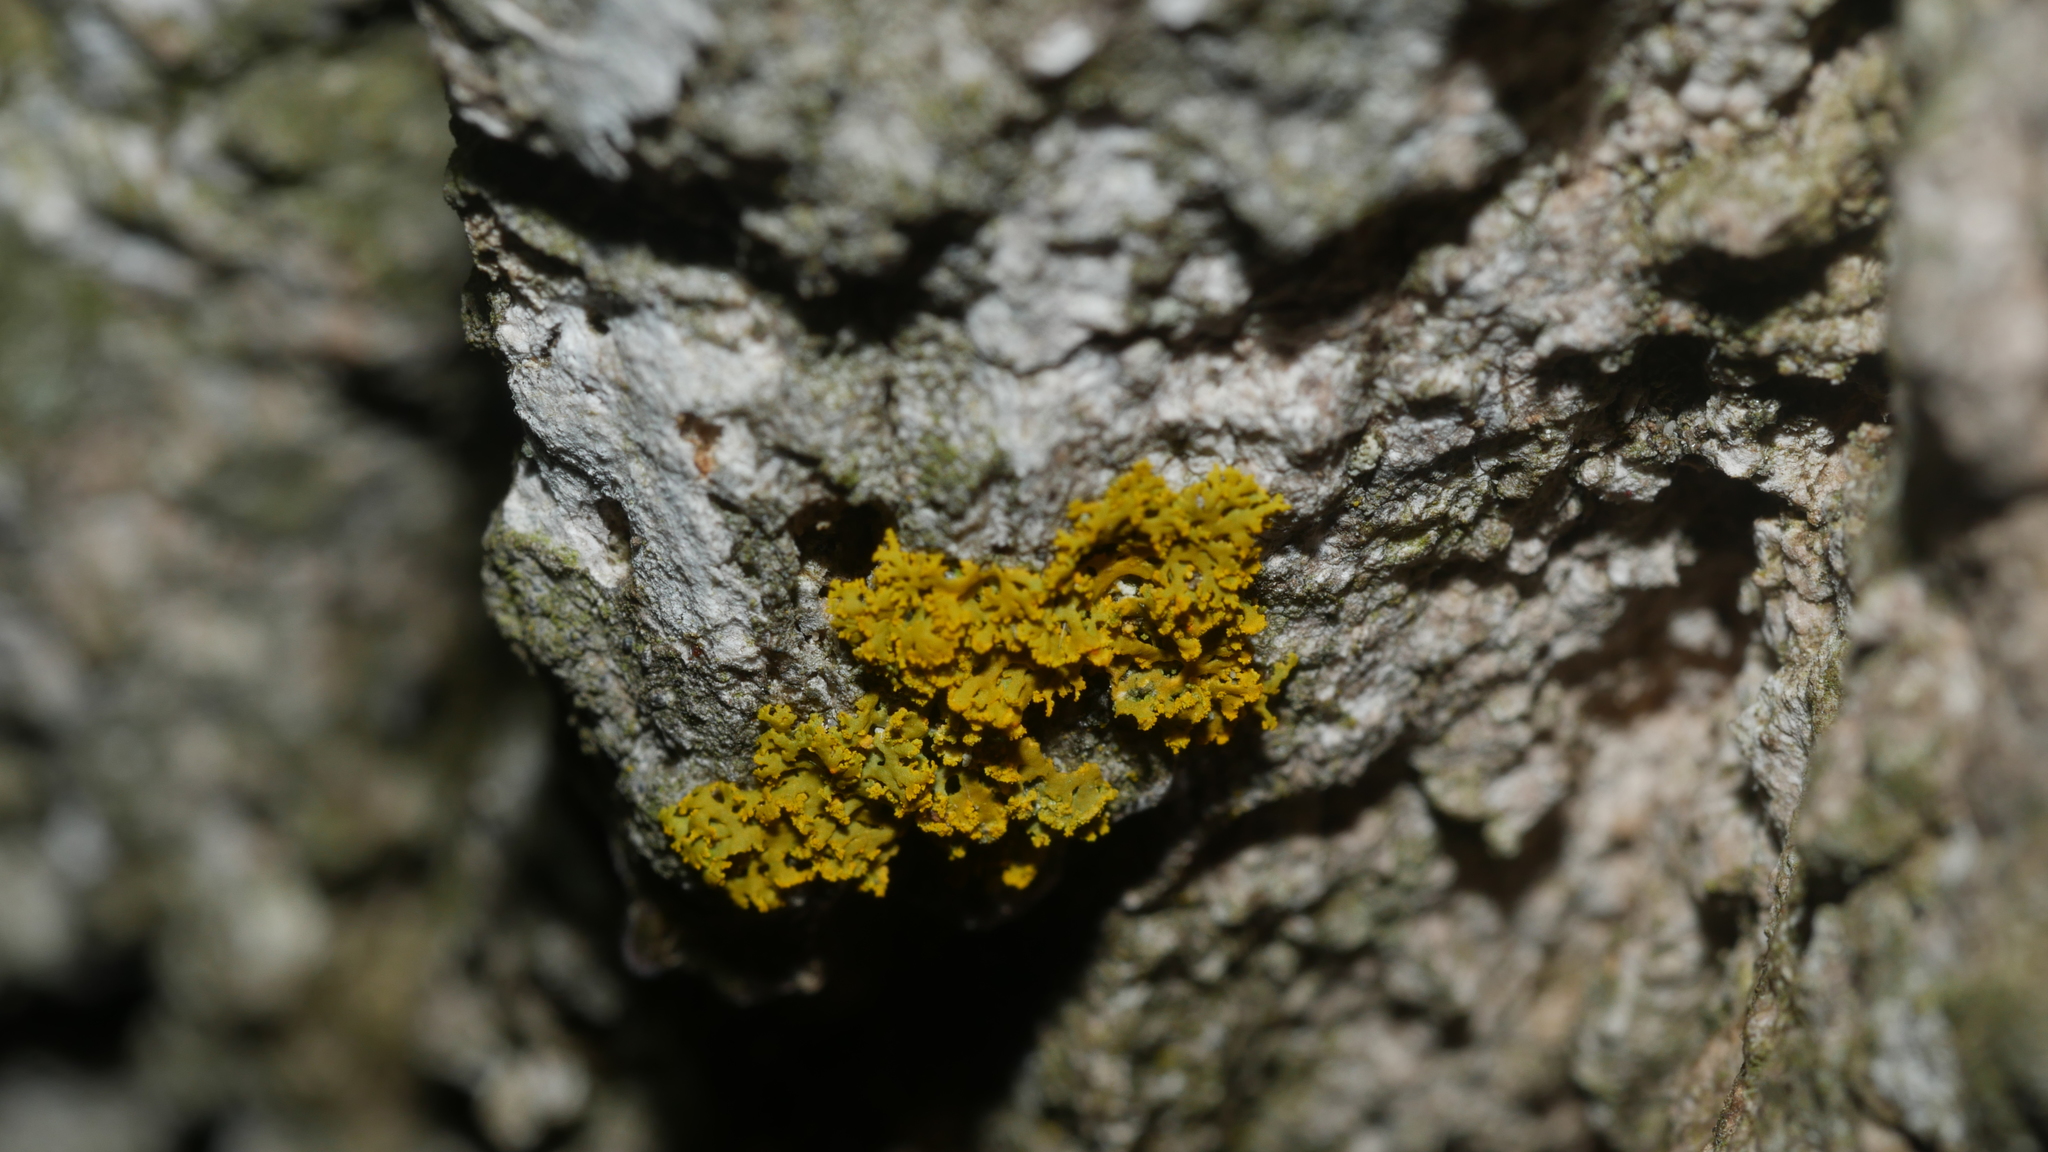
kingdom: Fungi
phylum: Ascomycota
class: Candelariomycetes
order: Candelariales
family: Candelariaceae
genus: Candelaria
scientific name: Candelaria concolor
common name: Candleflame lichen
